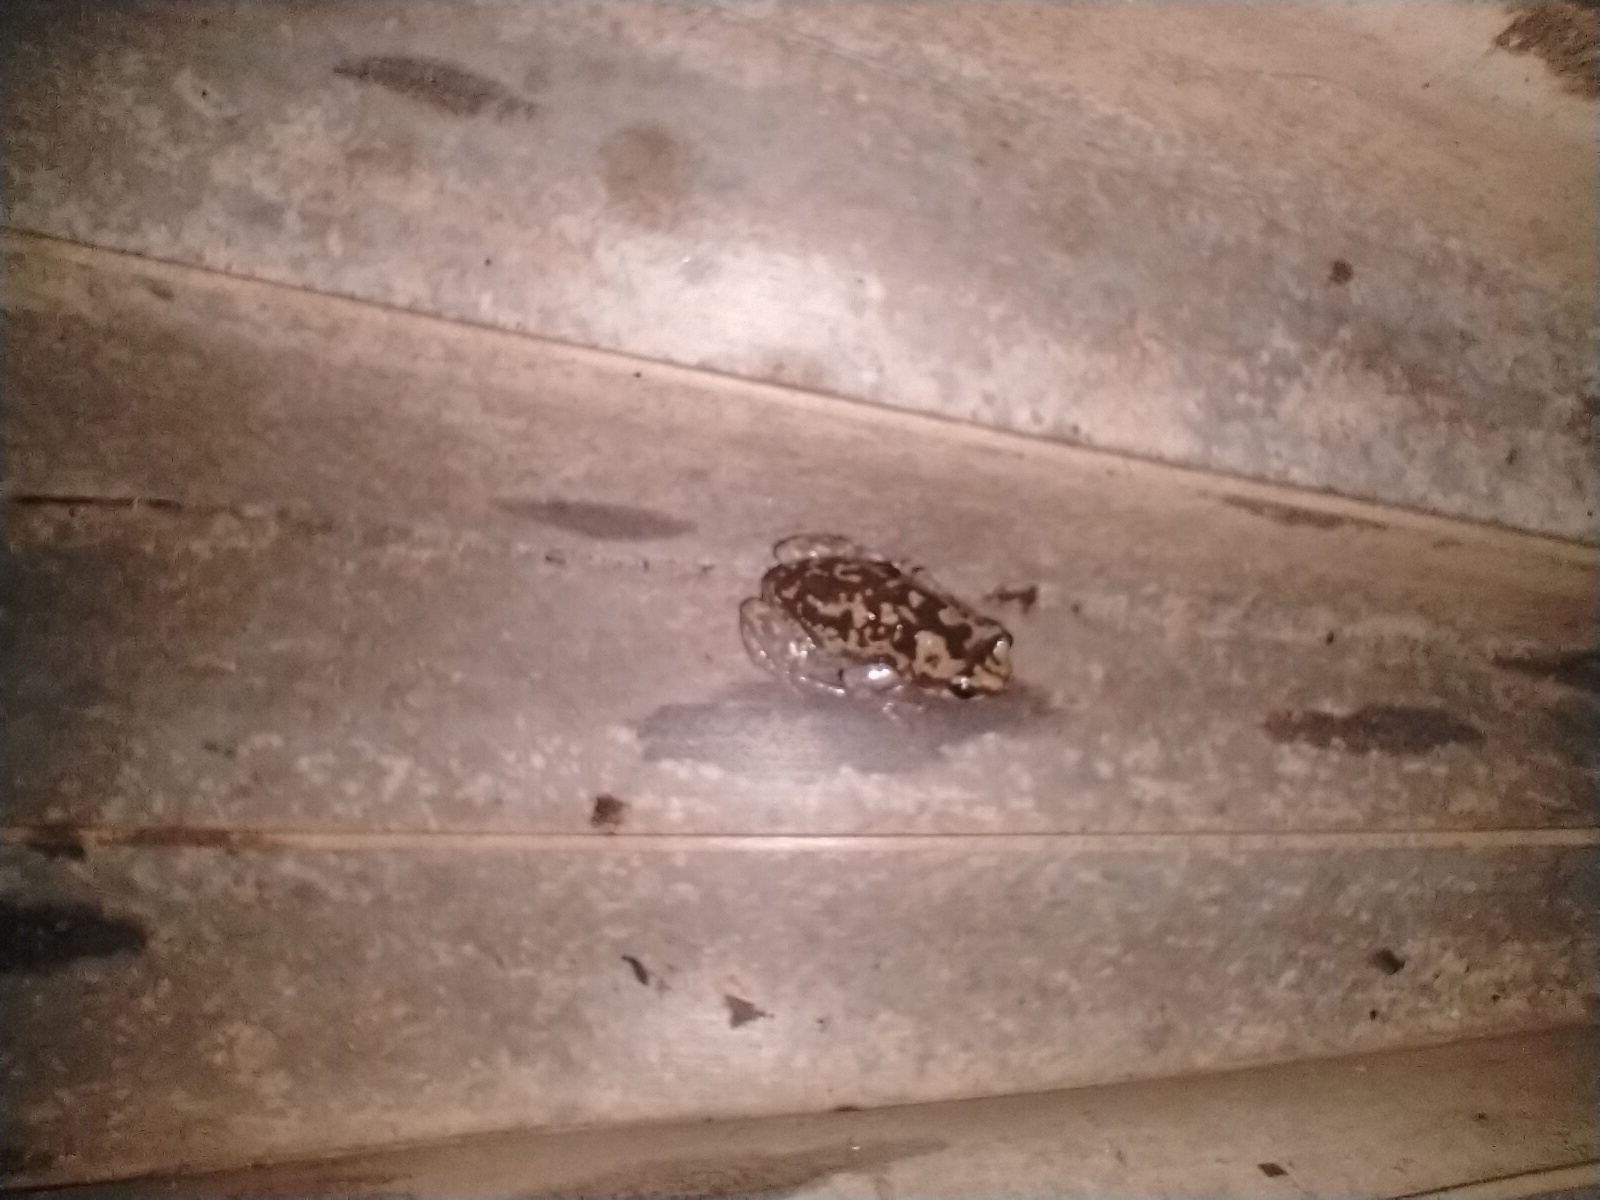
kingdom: Animalia
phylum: Chordata
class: Amphibia
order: Anura
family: Microhylidae
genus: Uperodon
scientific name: Uperodon variegatus
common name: Eluru dot frog
